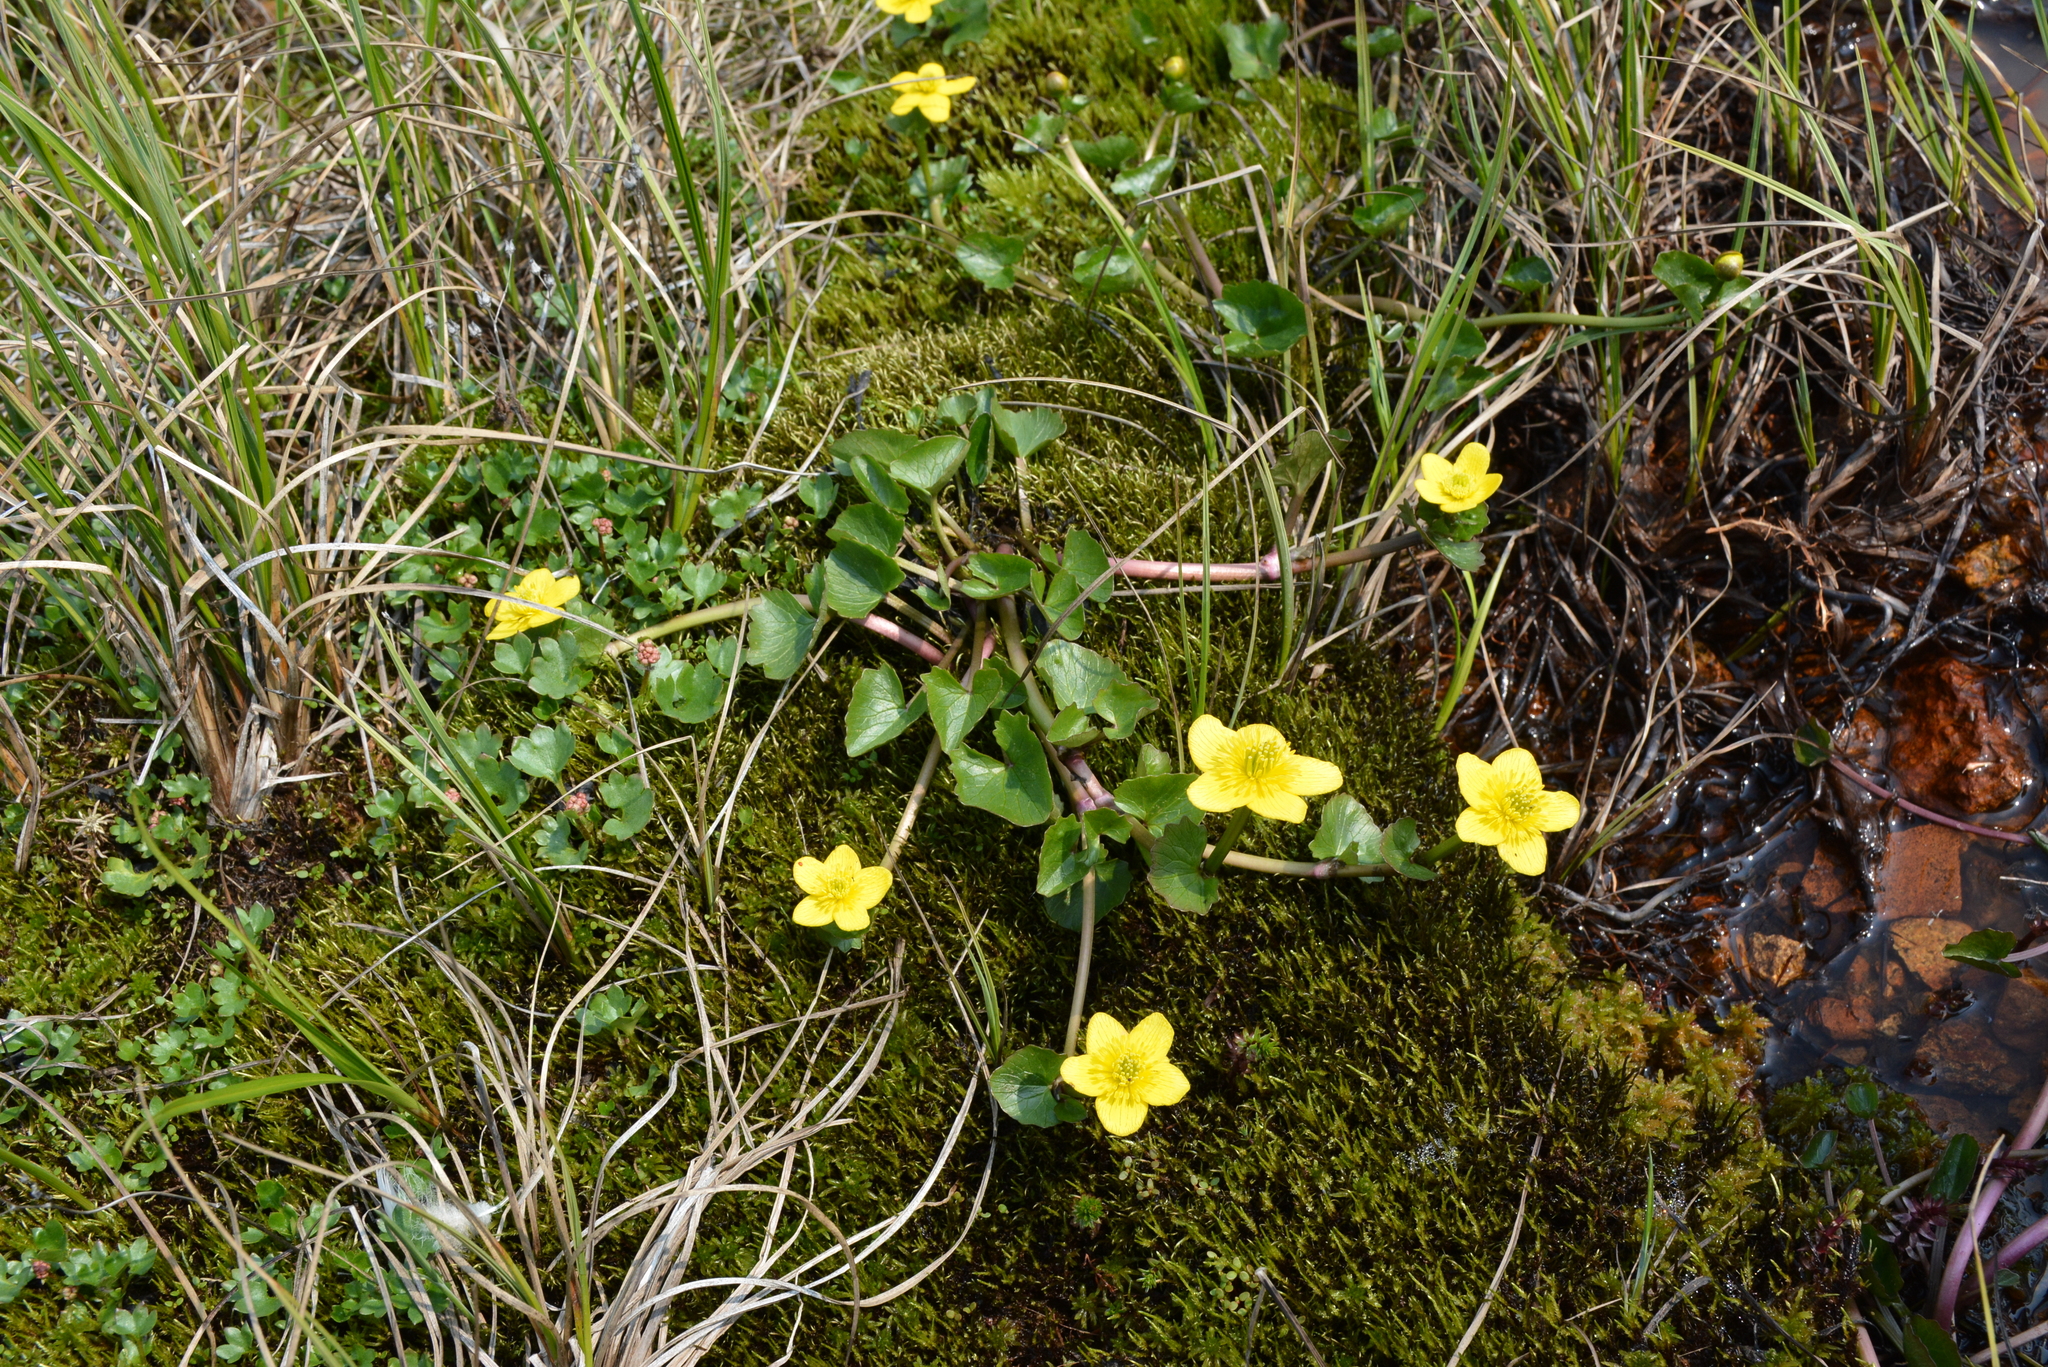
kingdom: Plantae
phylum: Tracheophyta
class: Magnoliopsida
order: Ranunculales
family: Ranunculaceae
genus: Caltha
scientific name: Caltha palustris
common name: Marsh marigold
